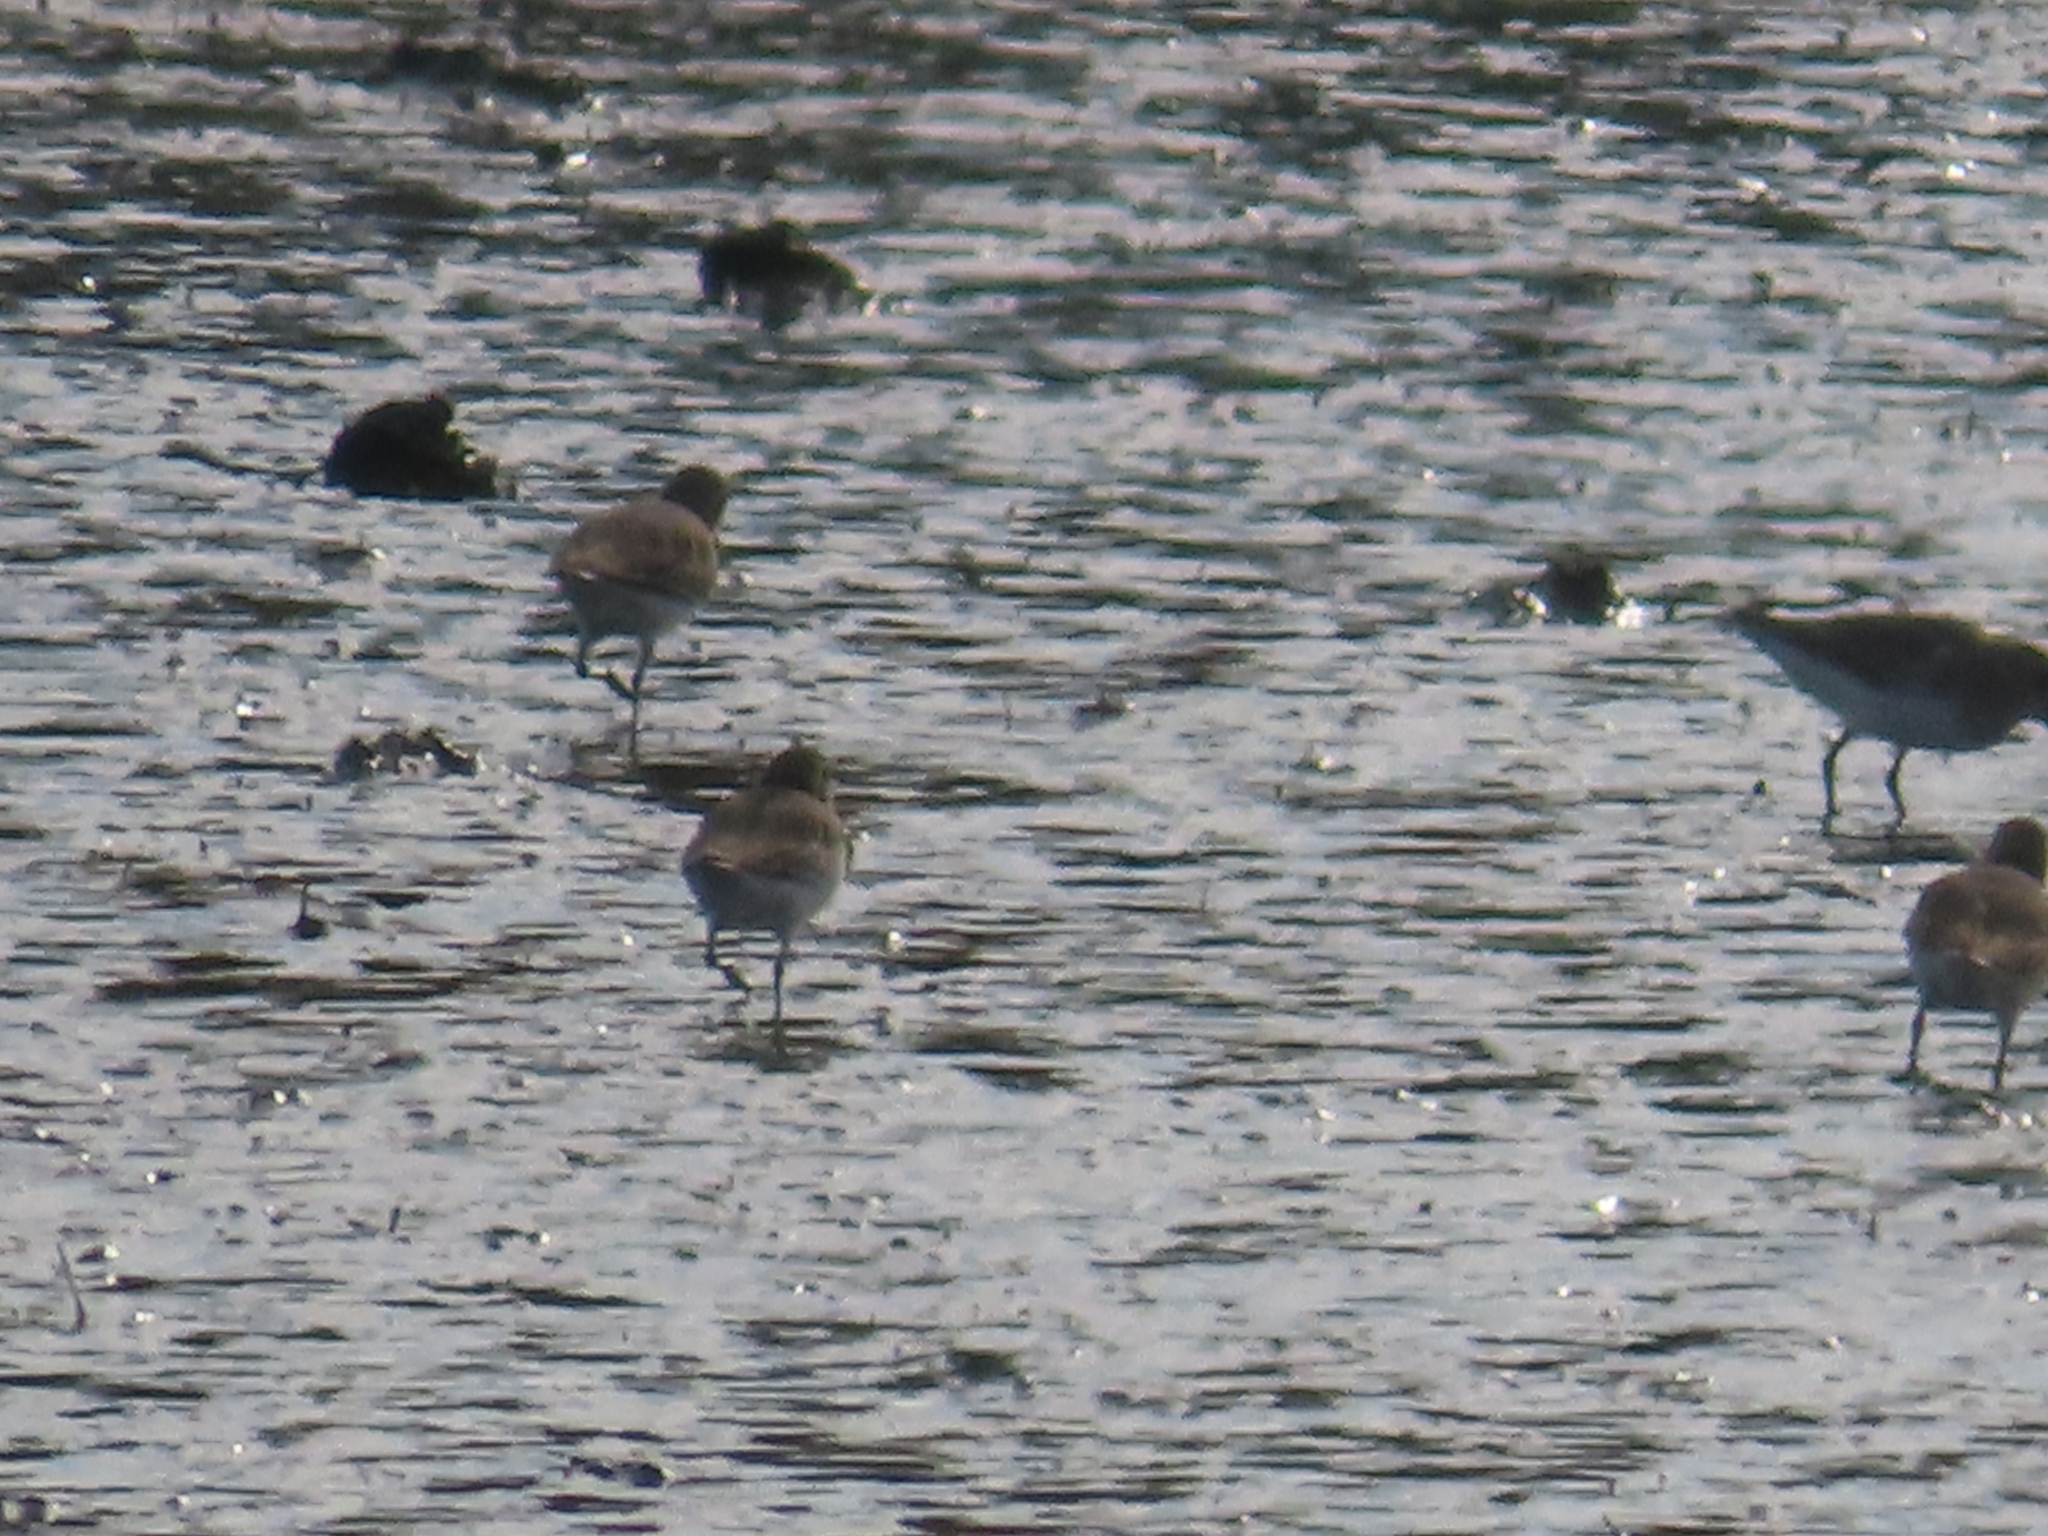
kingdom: Animalia
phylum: Chordata
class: Aves
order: Charadriiformes
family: Scolopacidae
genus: Calidris
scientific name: Calidris alpina
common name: Dunlin
